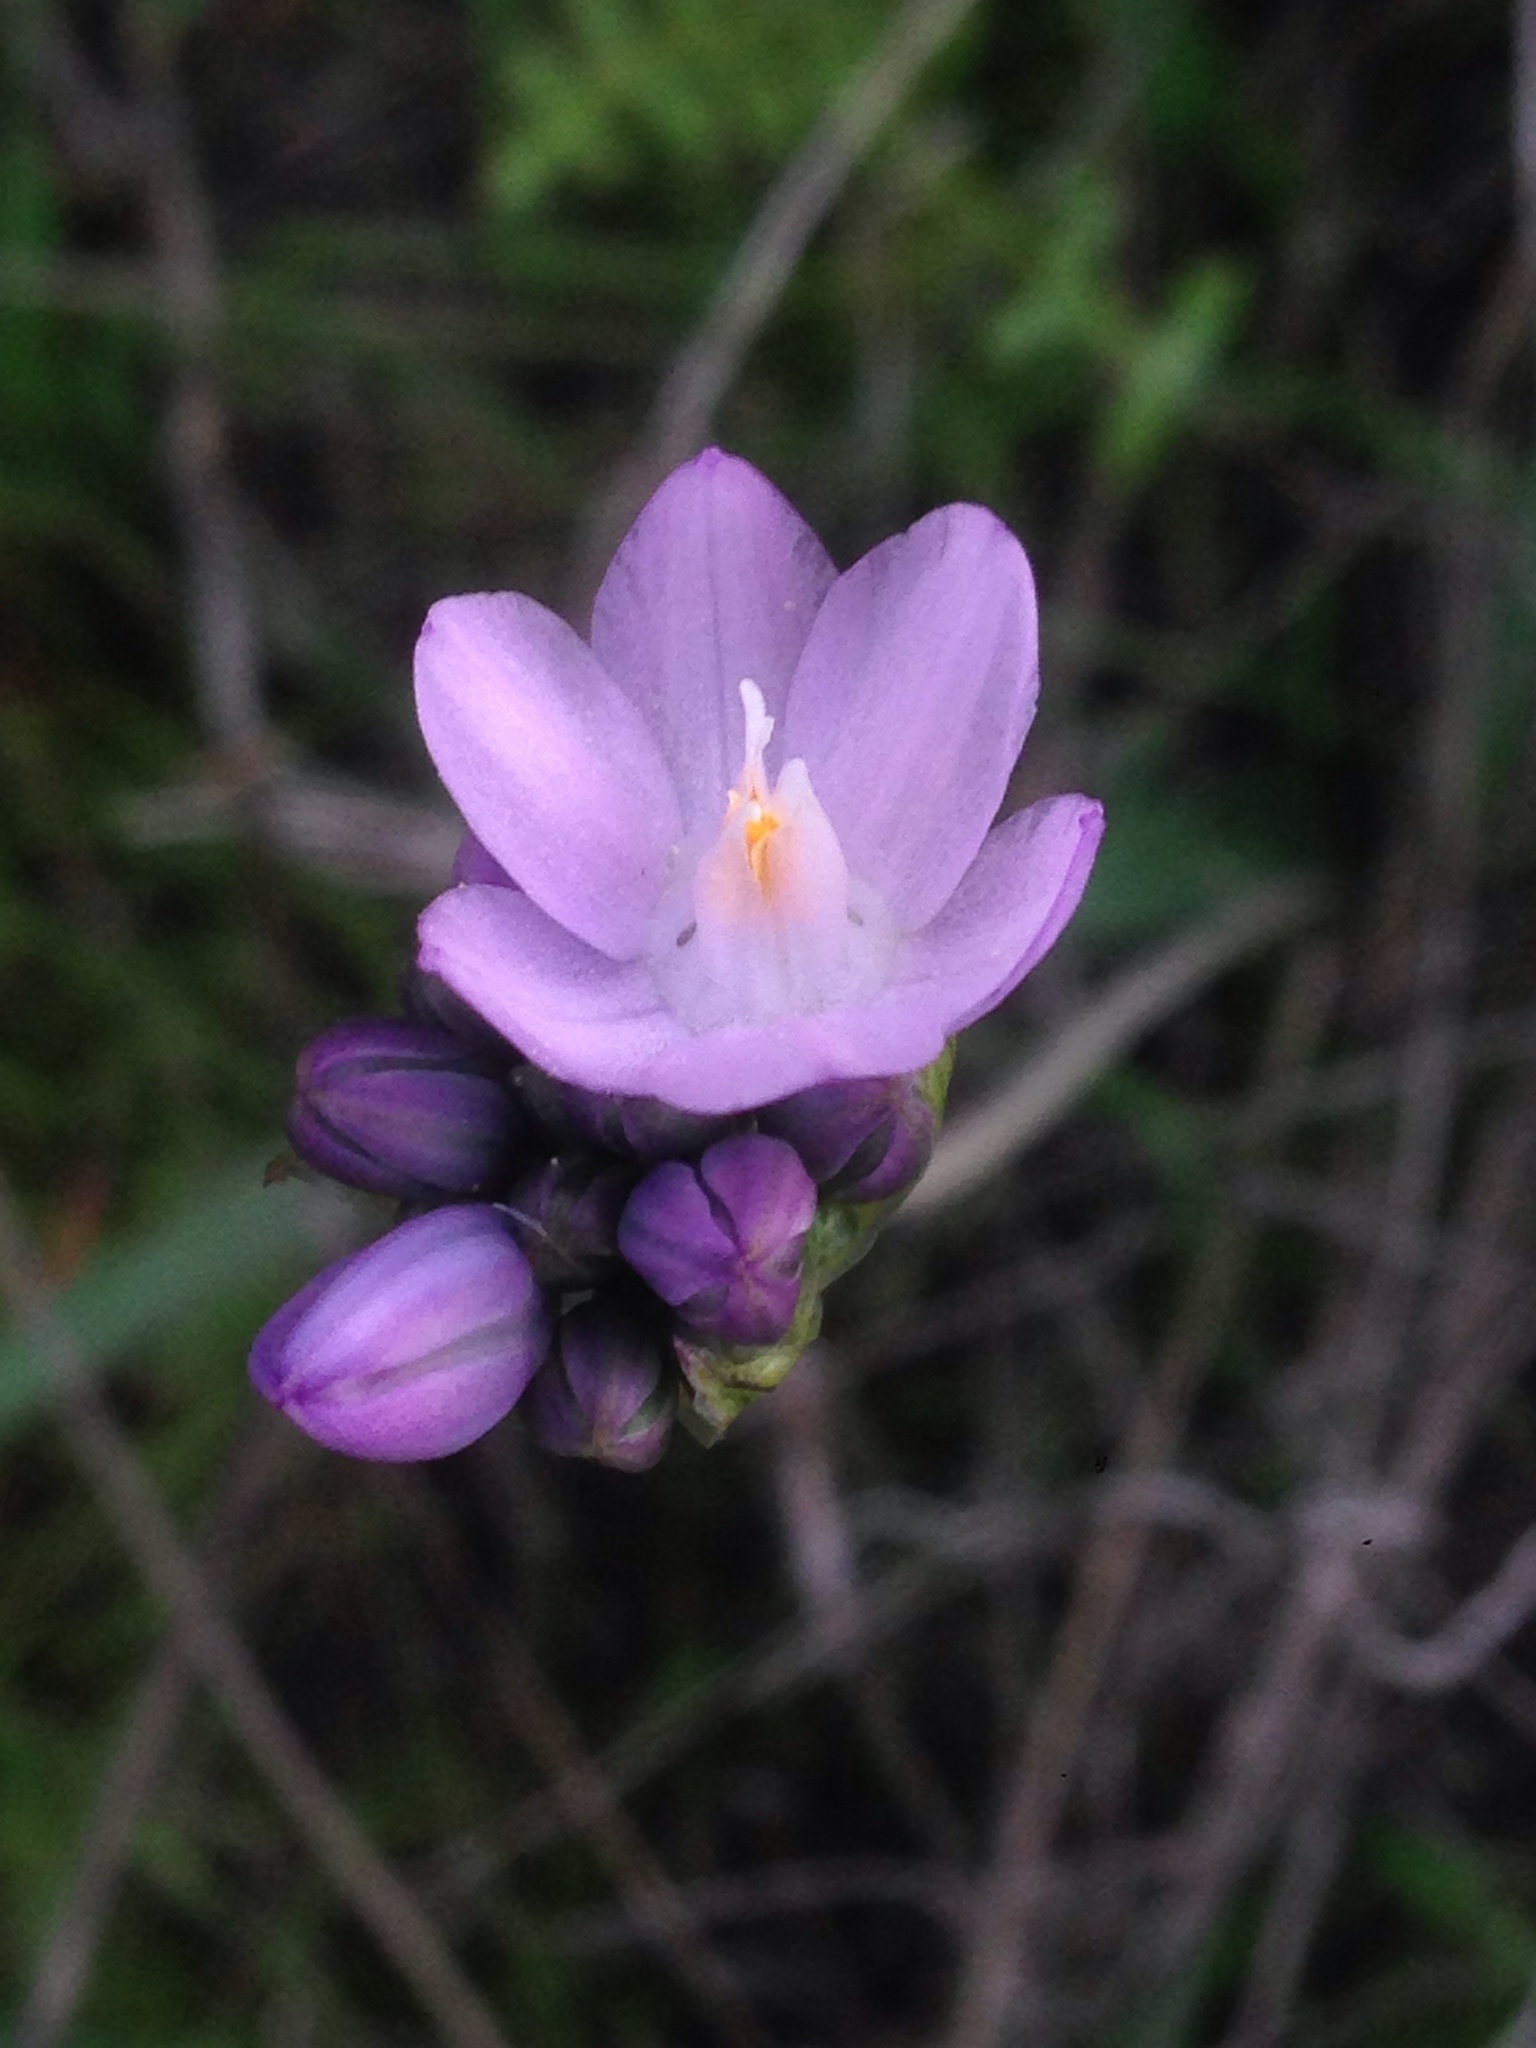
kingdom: Plantae
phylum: Tracheophyta
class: Liliopsida
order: Asparagales
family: Asparagaceae
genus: Dipterostemon
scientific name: Dipterostemon capitatus
